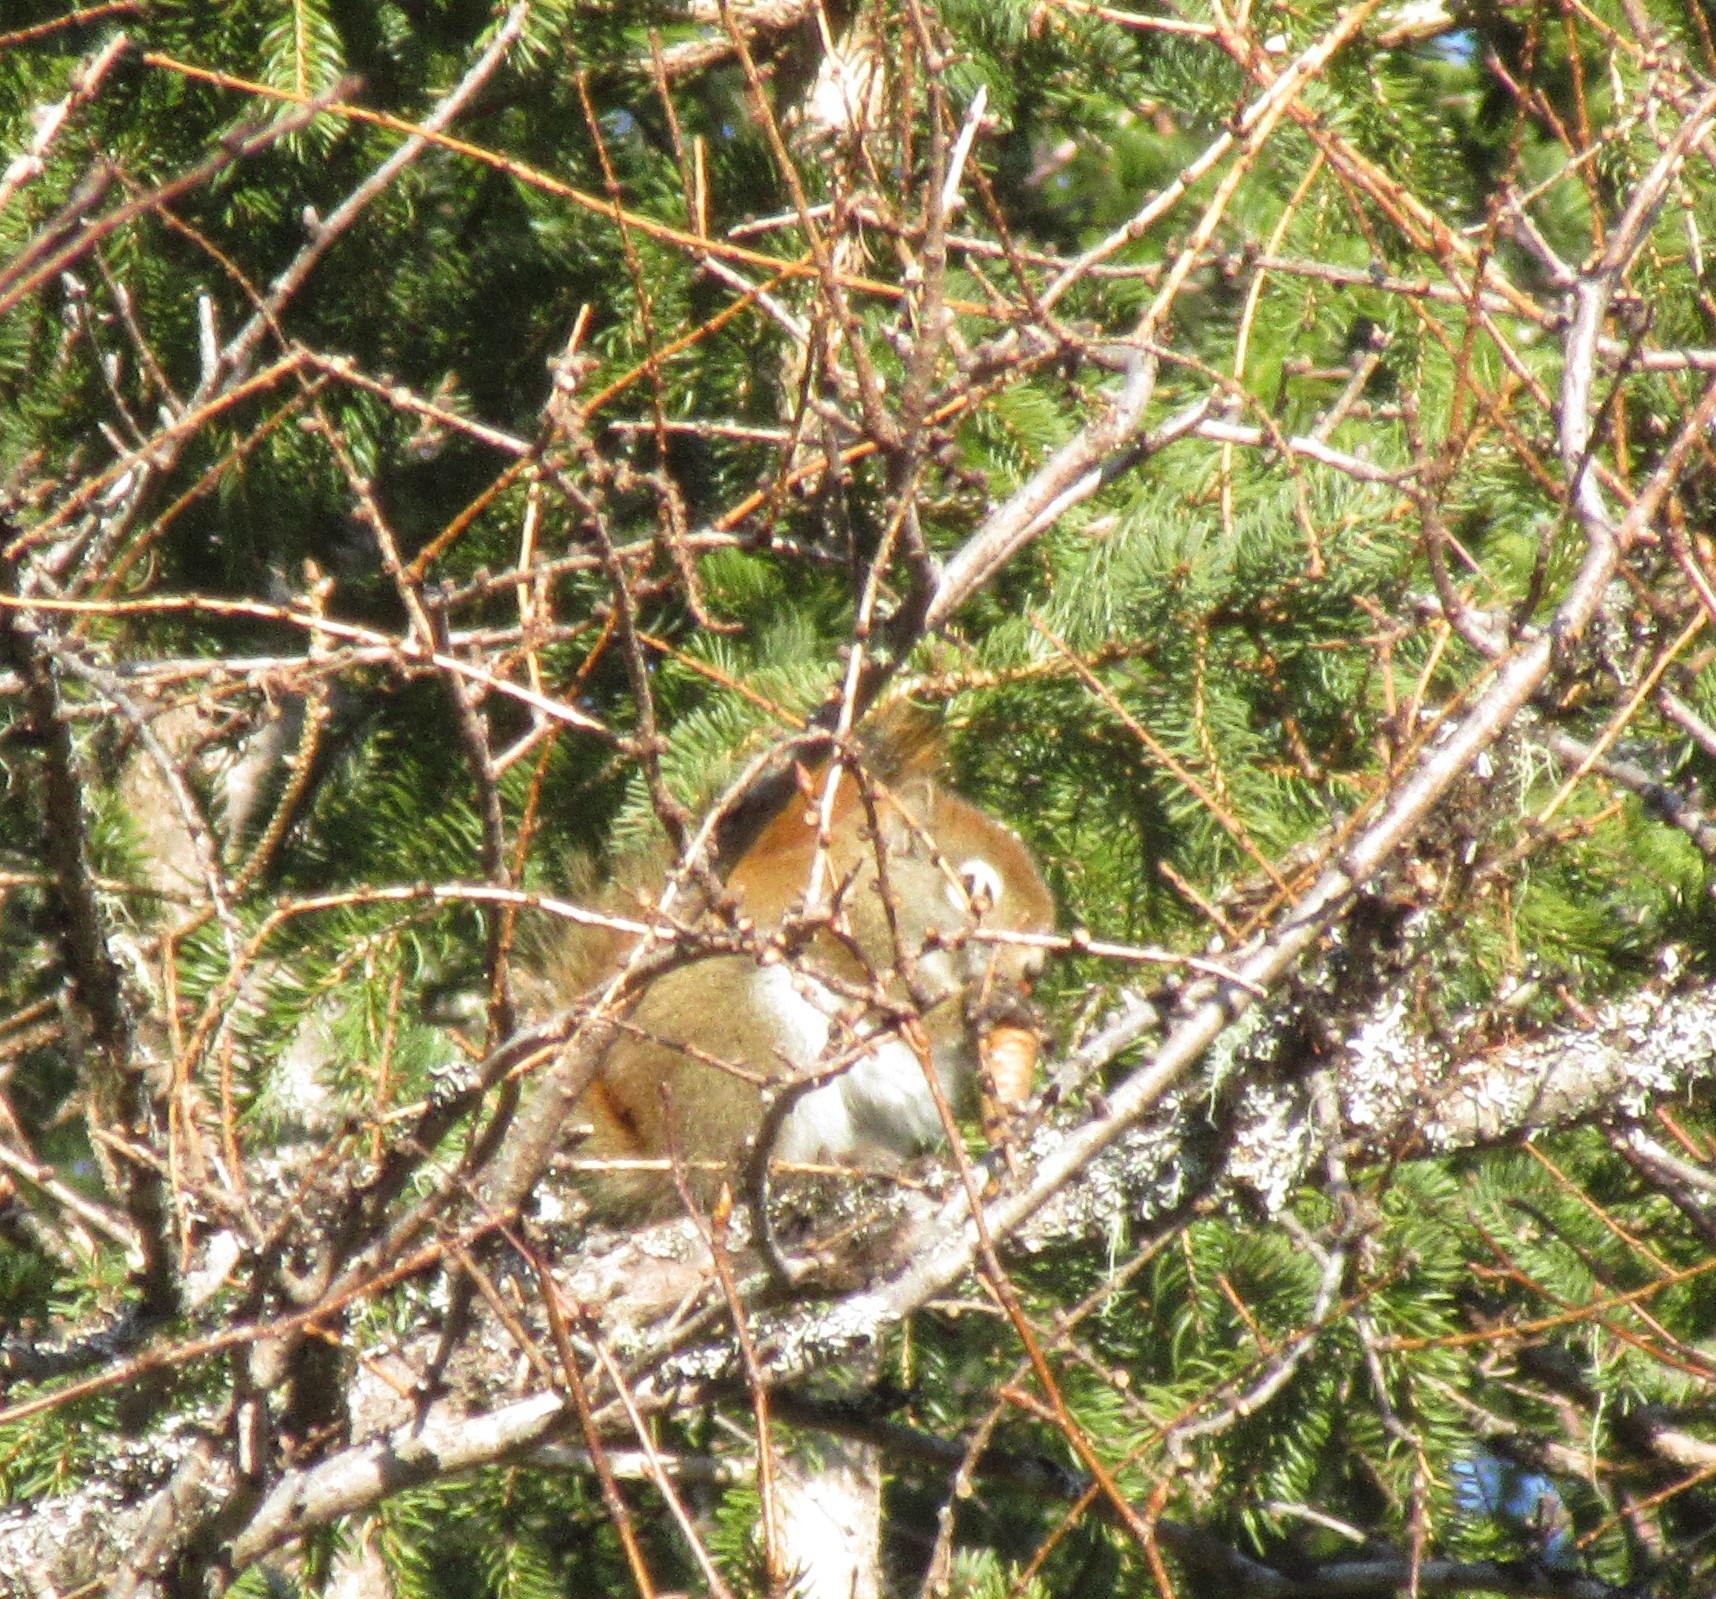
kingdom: Animalia
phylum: Chordata
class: Mammalia
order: Rodentia
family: Sciuridae
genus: Tamiasciurus
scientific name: Tamiasciurus hudsonicus
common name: Red squirrel
